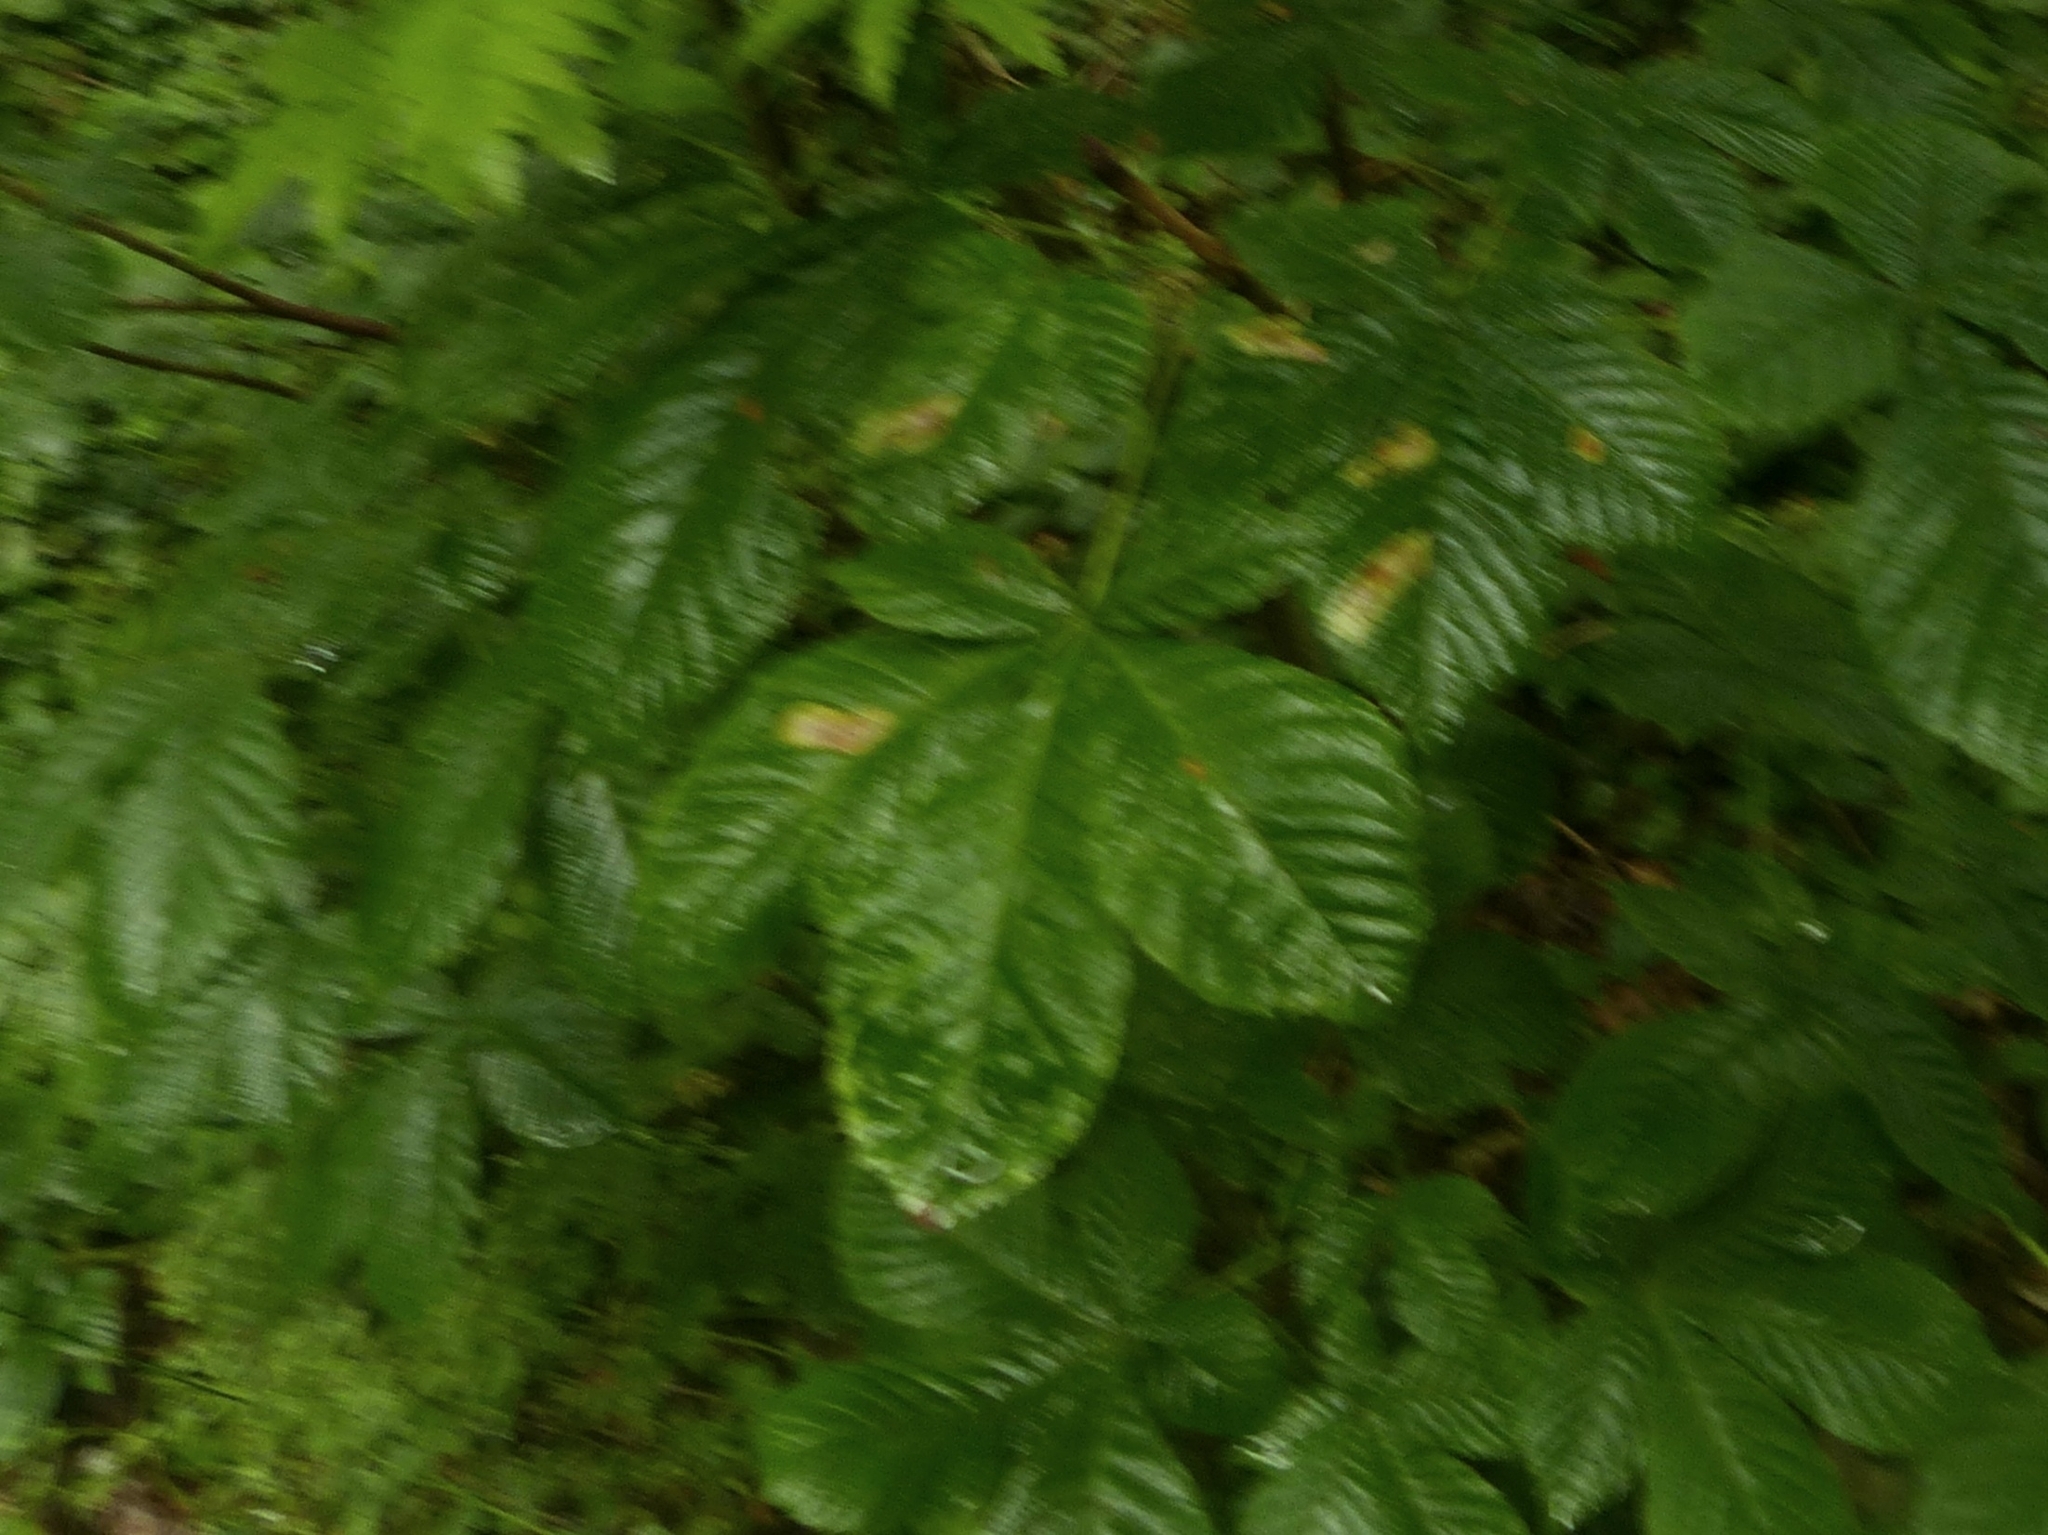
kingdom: Plantae
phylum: Tracheophyta
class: Magnoliopsida
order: Sapindales
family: Sapindaceae
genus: Aesculus
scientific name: Aesculus hippocastanum
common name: Horse-chestnut
